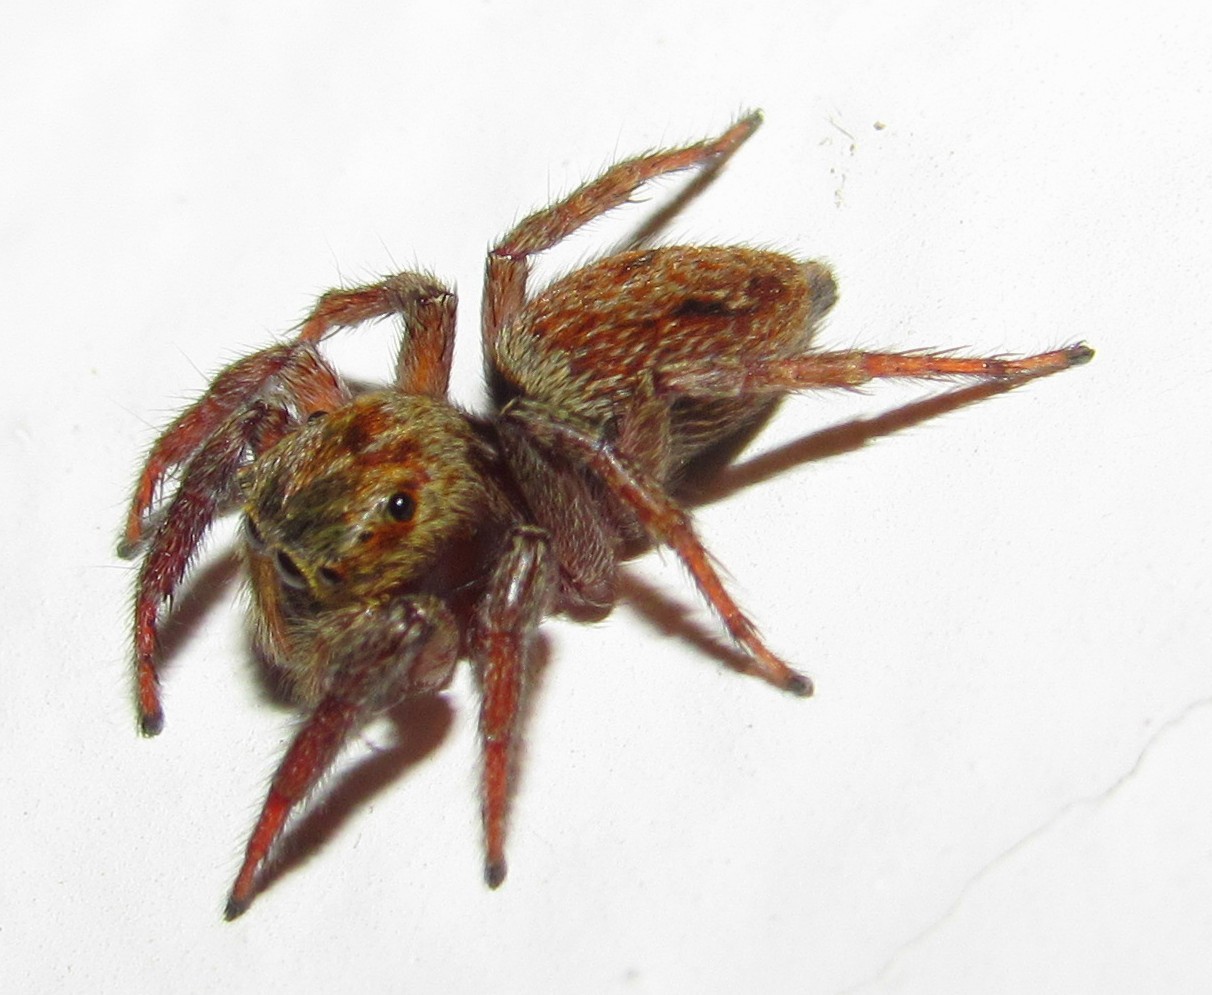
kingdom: Animalia
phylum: Arthropoda
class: Arachnida
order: Araneae
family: Salticidae
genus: Hasarius
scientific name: Hasarius adansoni
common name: Jumping spider
